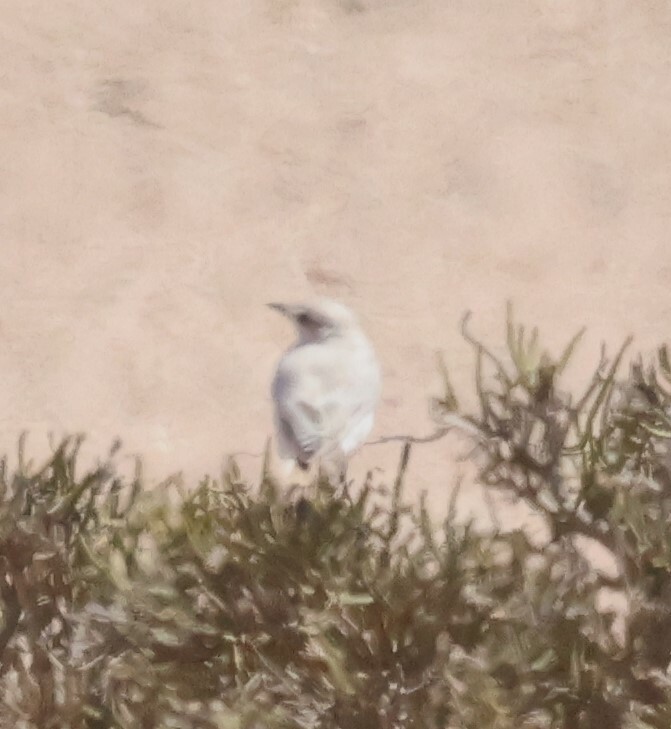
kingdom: Animalia
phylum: Chordata
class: Aves
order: Passeriformes
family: Muscicapidae
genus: Emarginata
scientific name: Emarginata tractrac
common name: Tractrac chat
